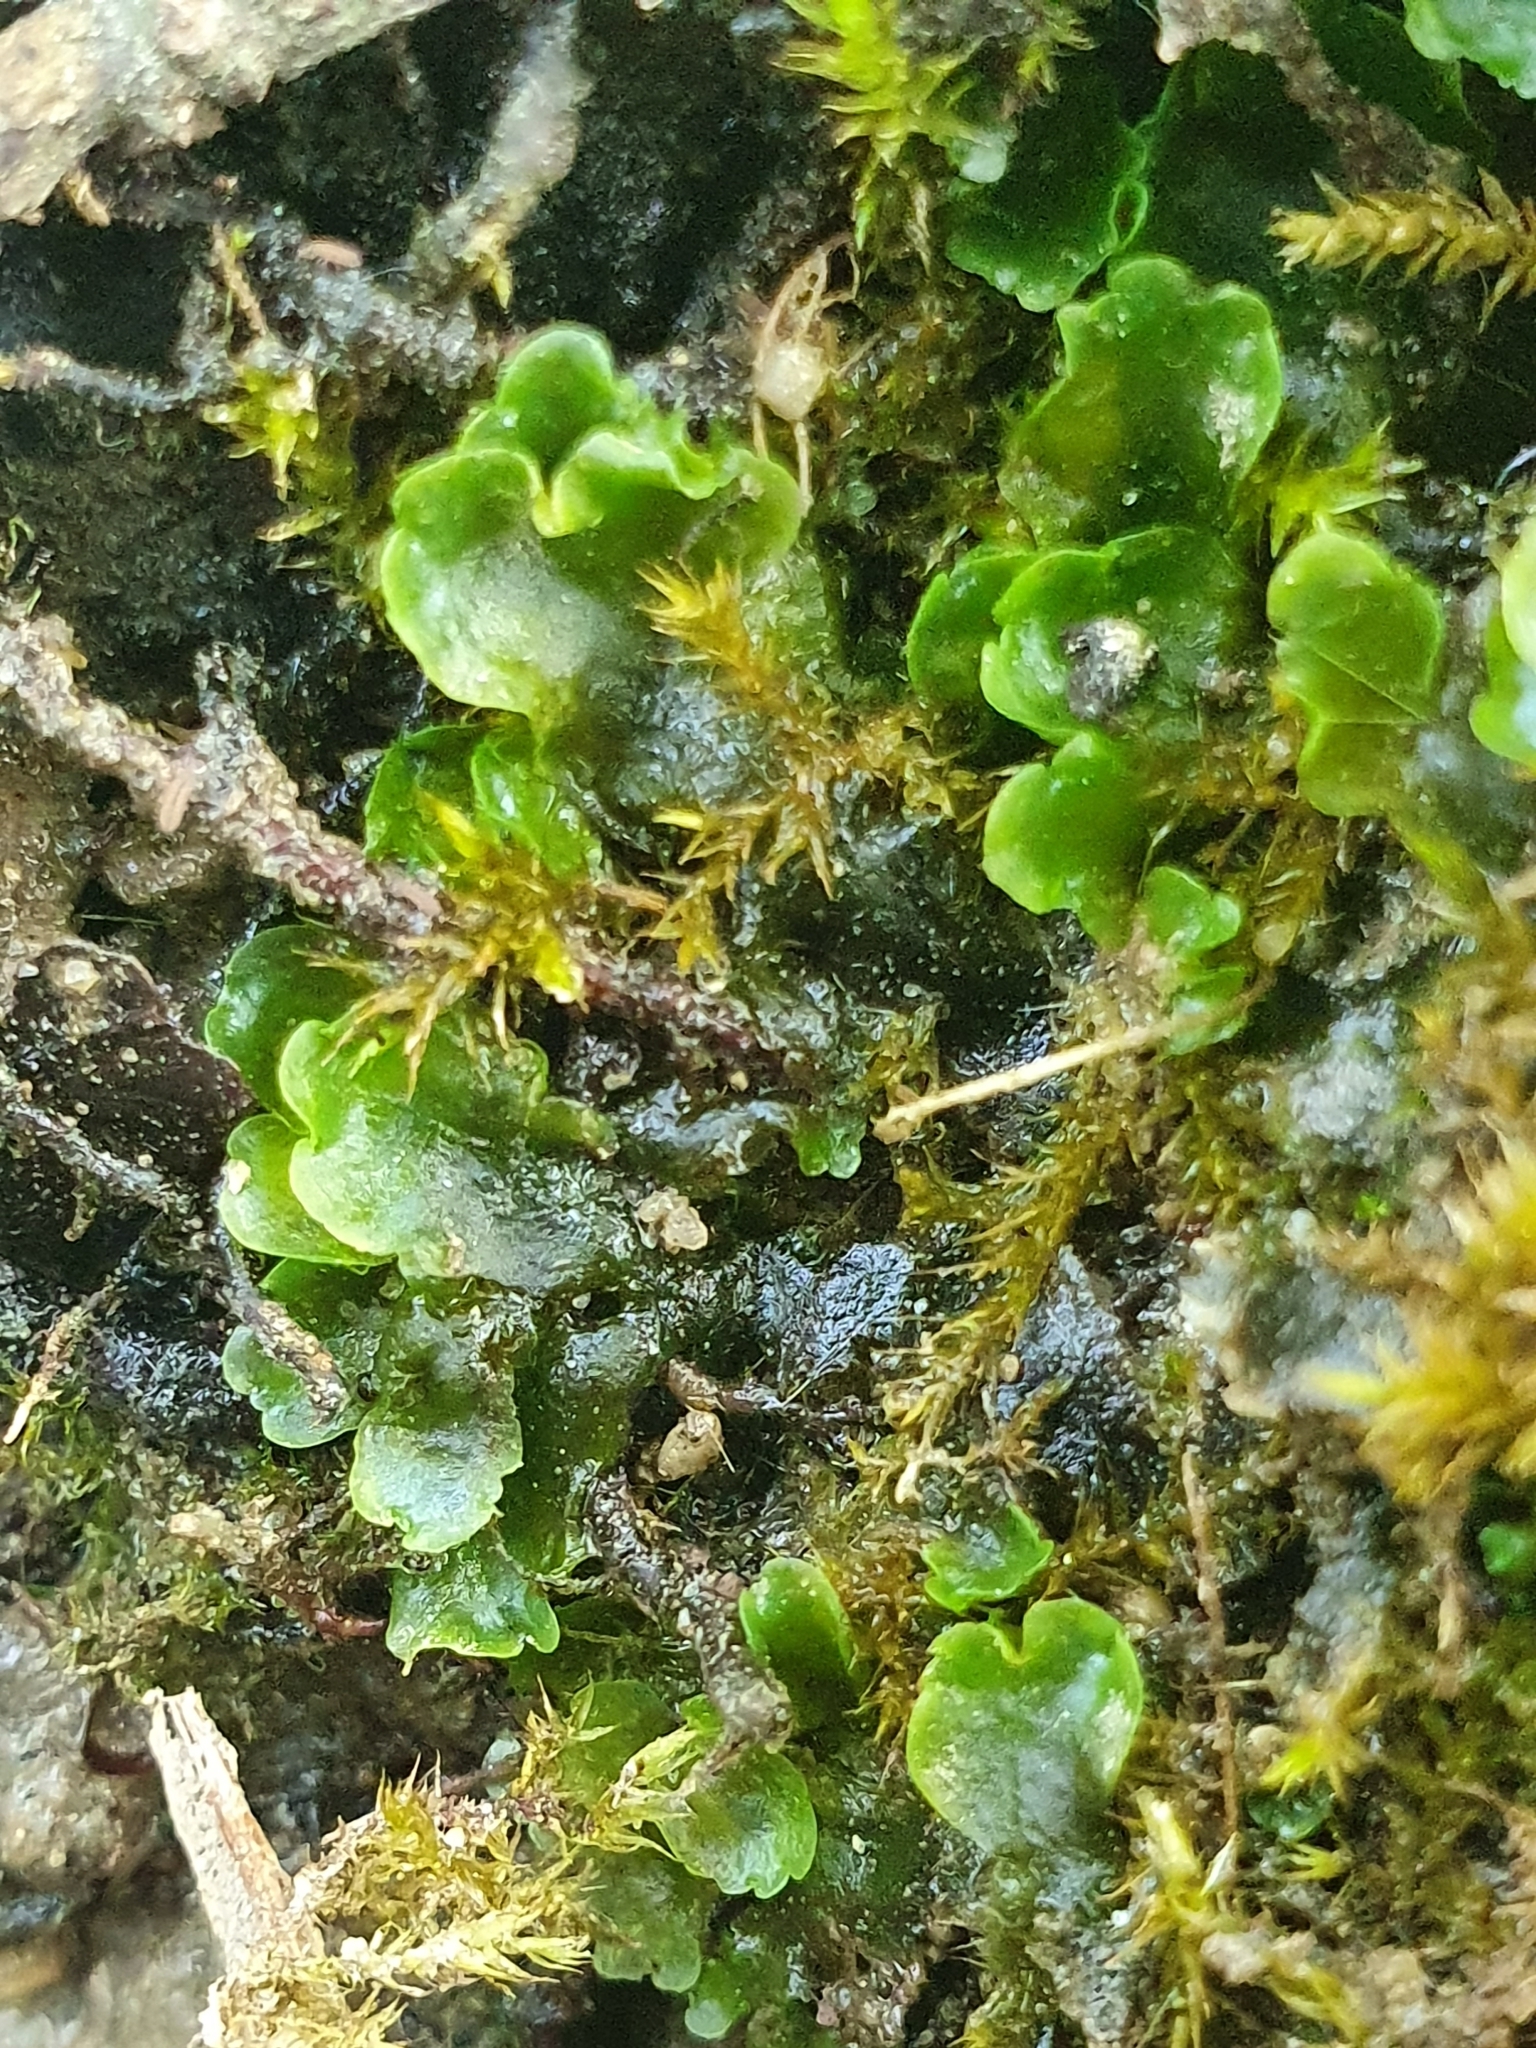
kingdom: Plantae
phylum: Marchantiophyta
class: Jungermanniopsida
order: Metzgeriales
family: Aneuraceae
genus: Aneura
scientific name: Aneura pinguis
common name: Common greasewort
